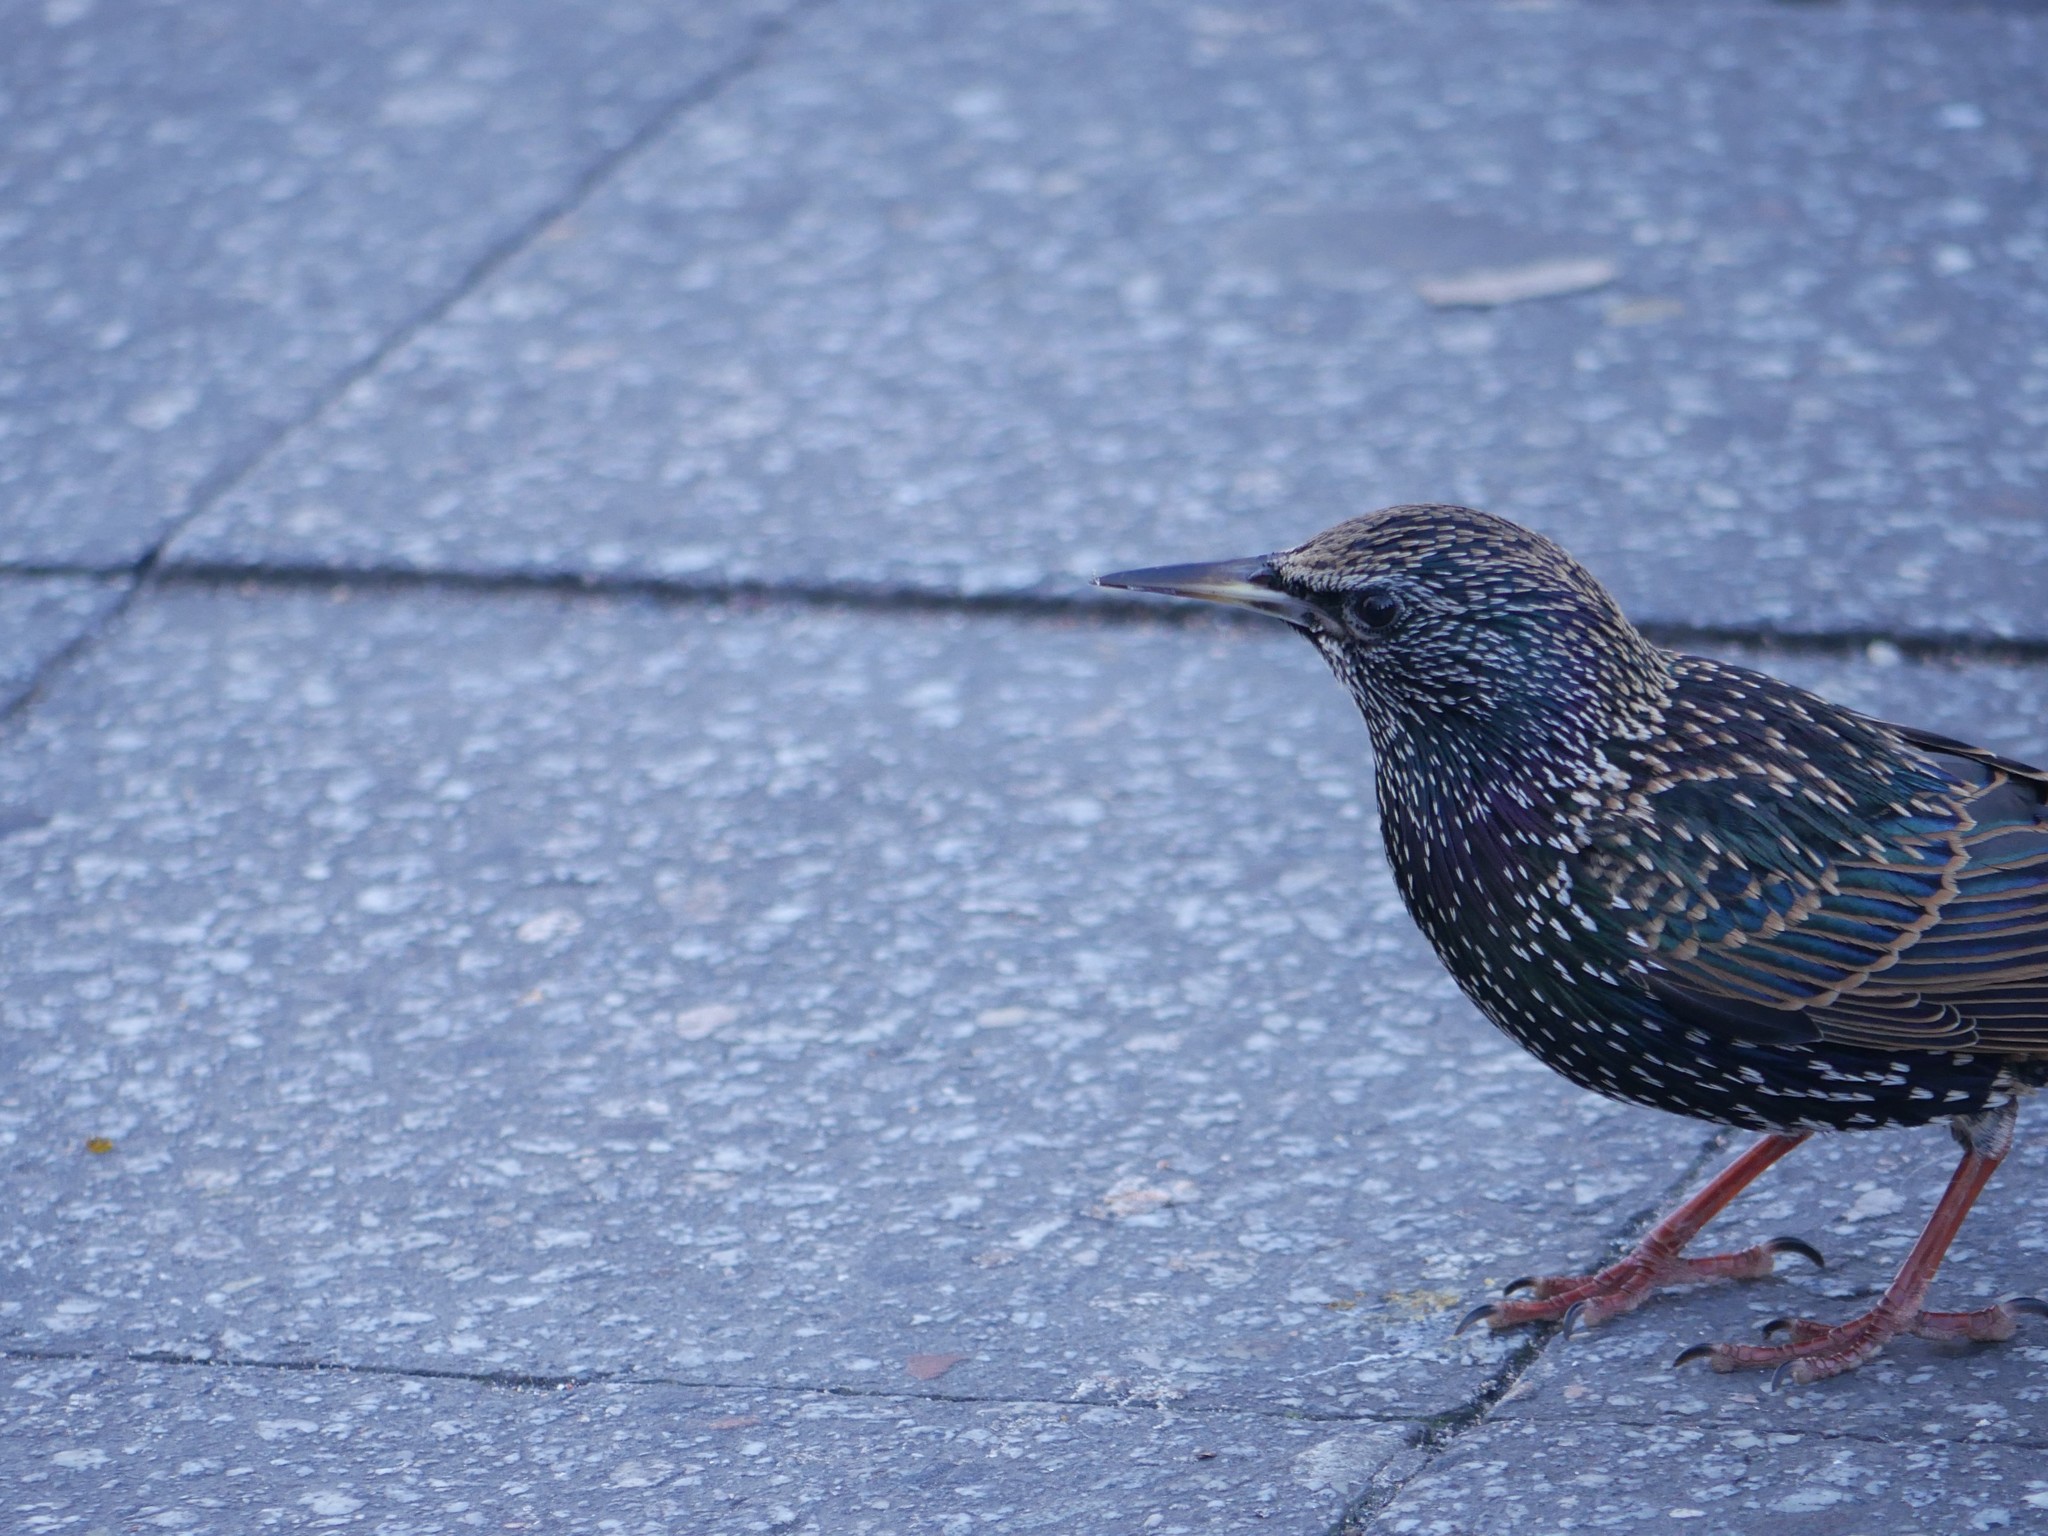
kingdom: Animalia
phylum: Chordata
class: Aves
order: Passeriformes
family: Sturnidae
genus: Sturnus
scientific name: Sturnus vulgaris
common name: Common starling
